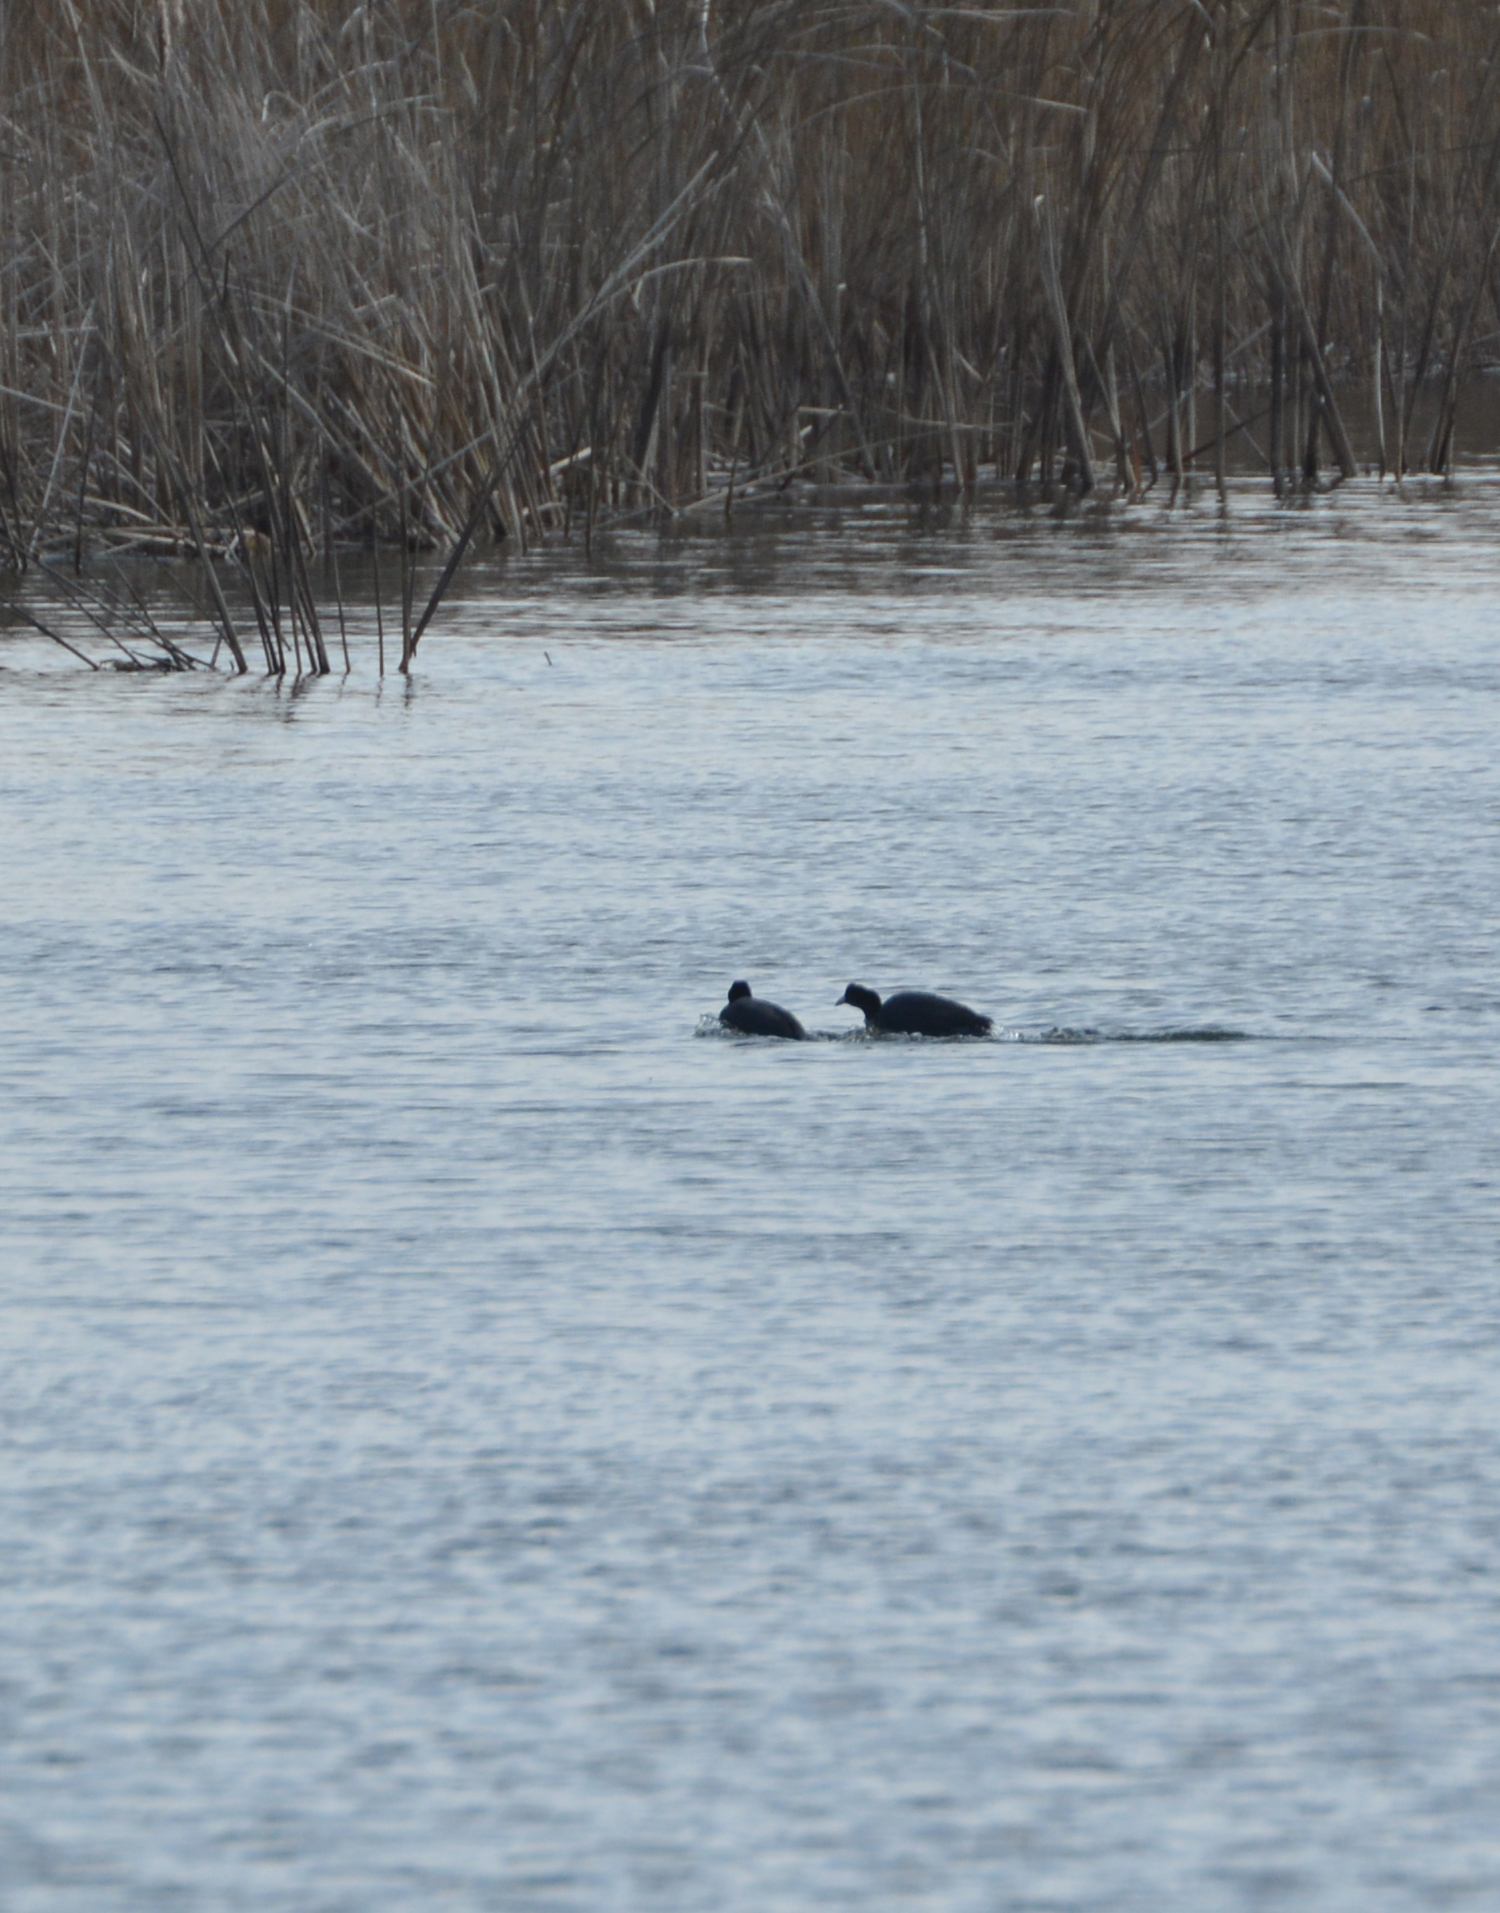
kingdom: Animalia
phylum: Chordata
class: Aves
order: Gruiformes
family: Rallidae
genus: Fulica
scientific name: Fulica atra
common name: Eurasian coot
